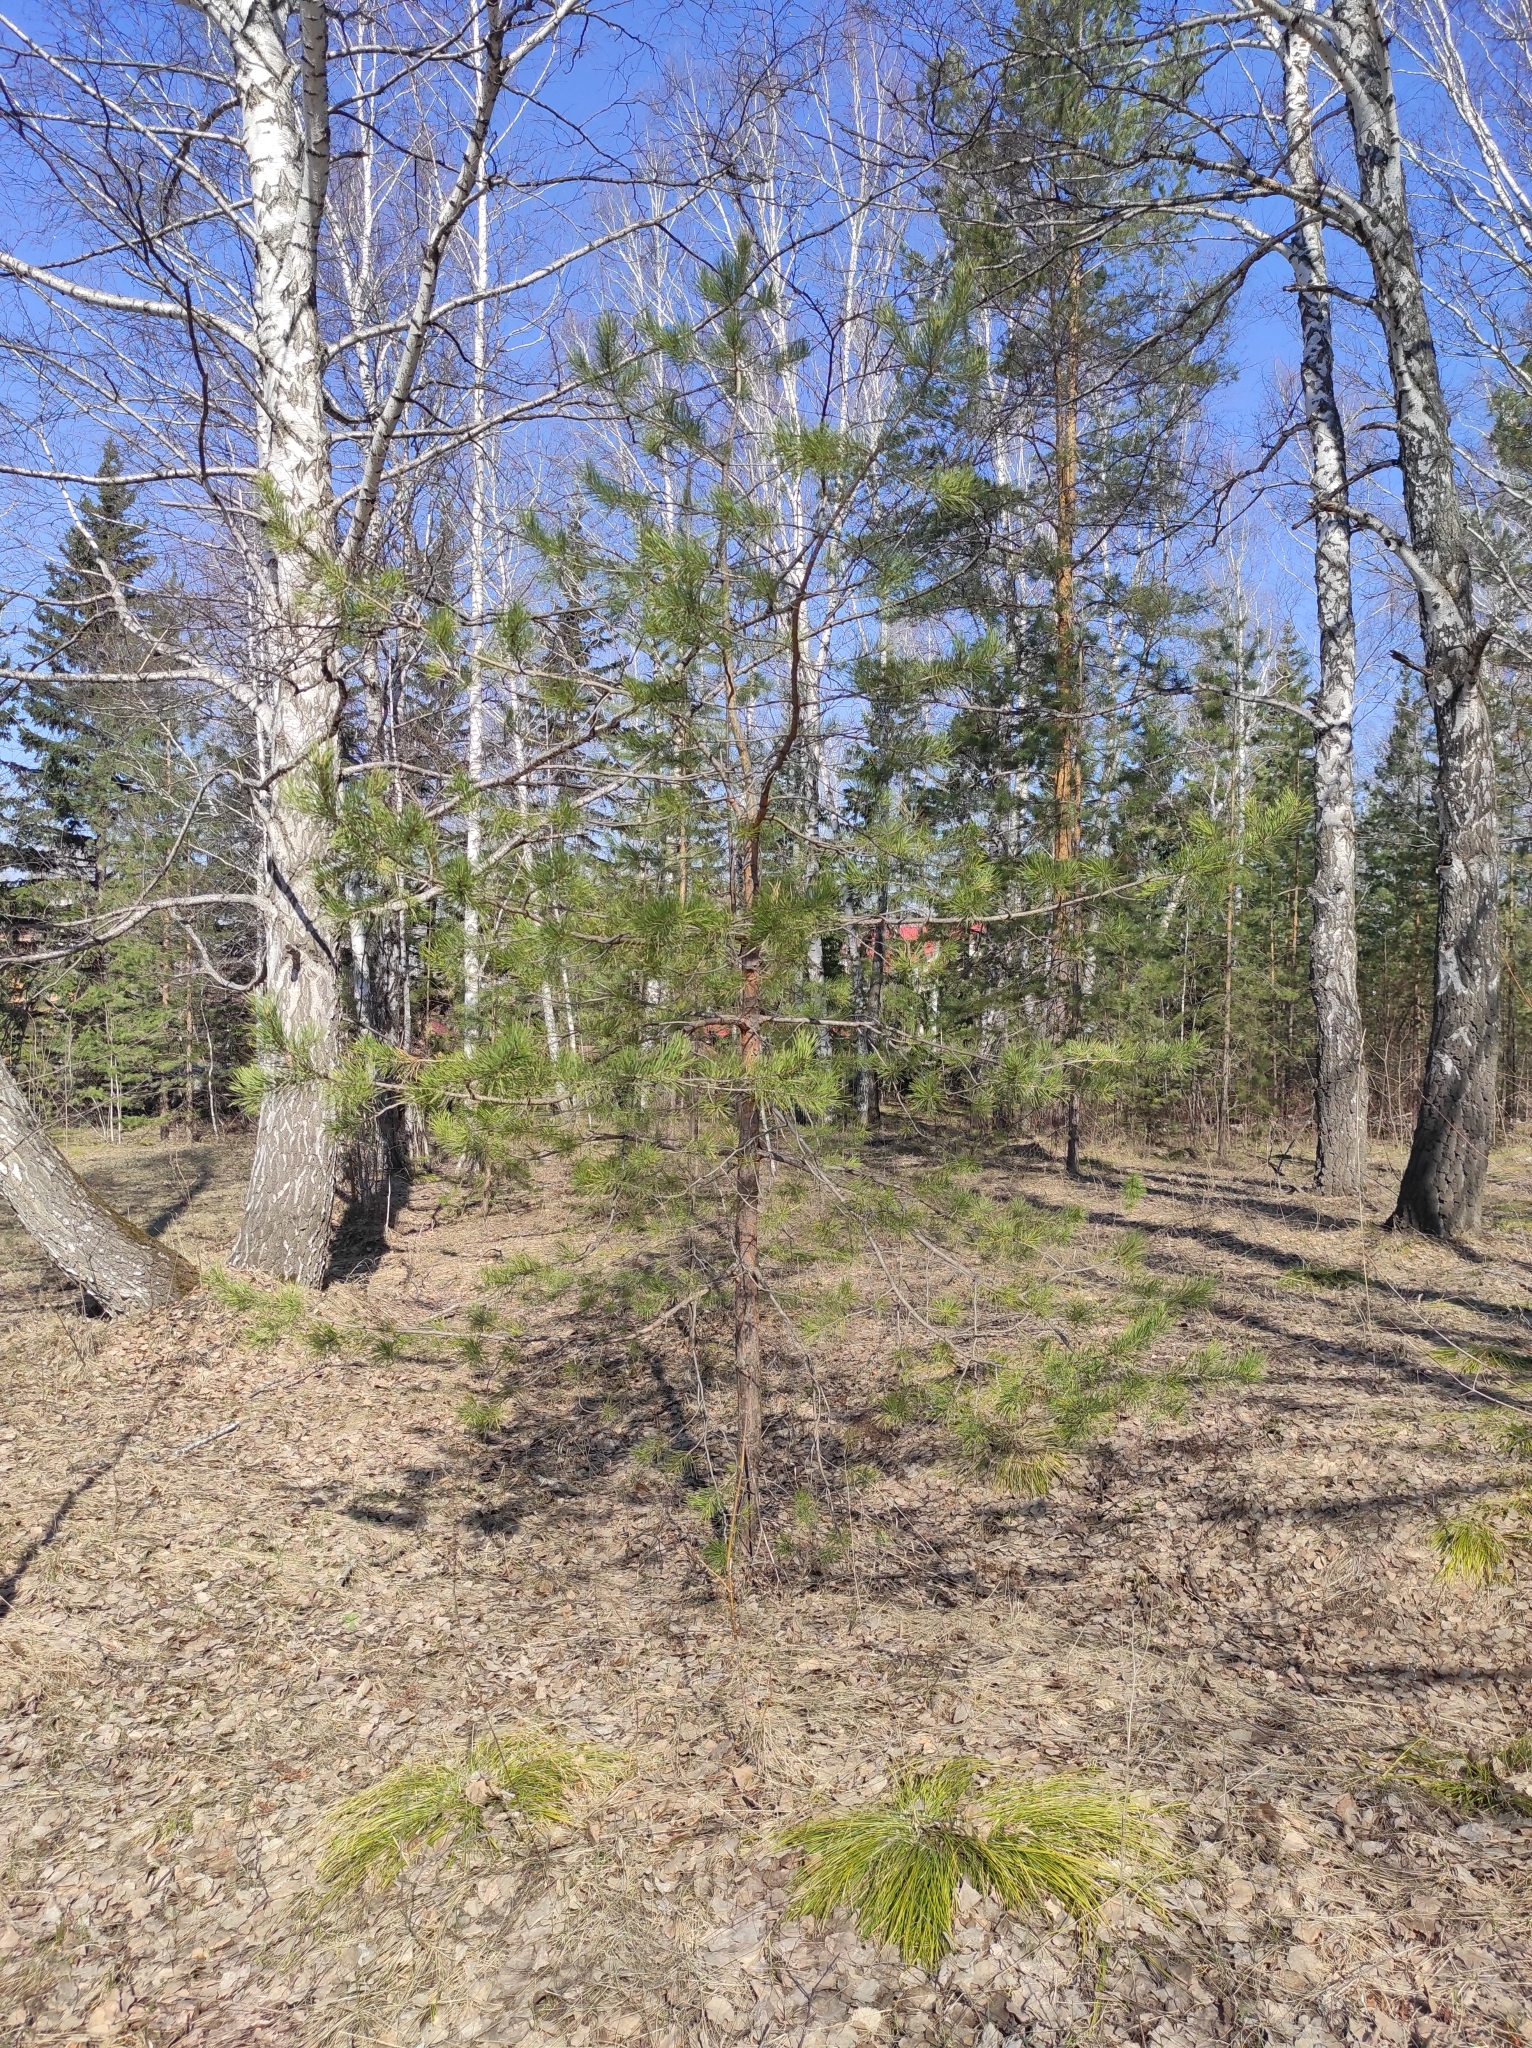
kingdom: Plantae
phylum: Tracheophyta
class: Pinopsida
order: Pinales
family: Pinaceae
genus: Pinus
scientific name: Pinus sylvestris
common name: Scots pine
